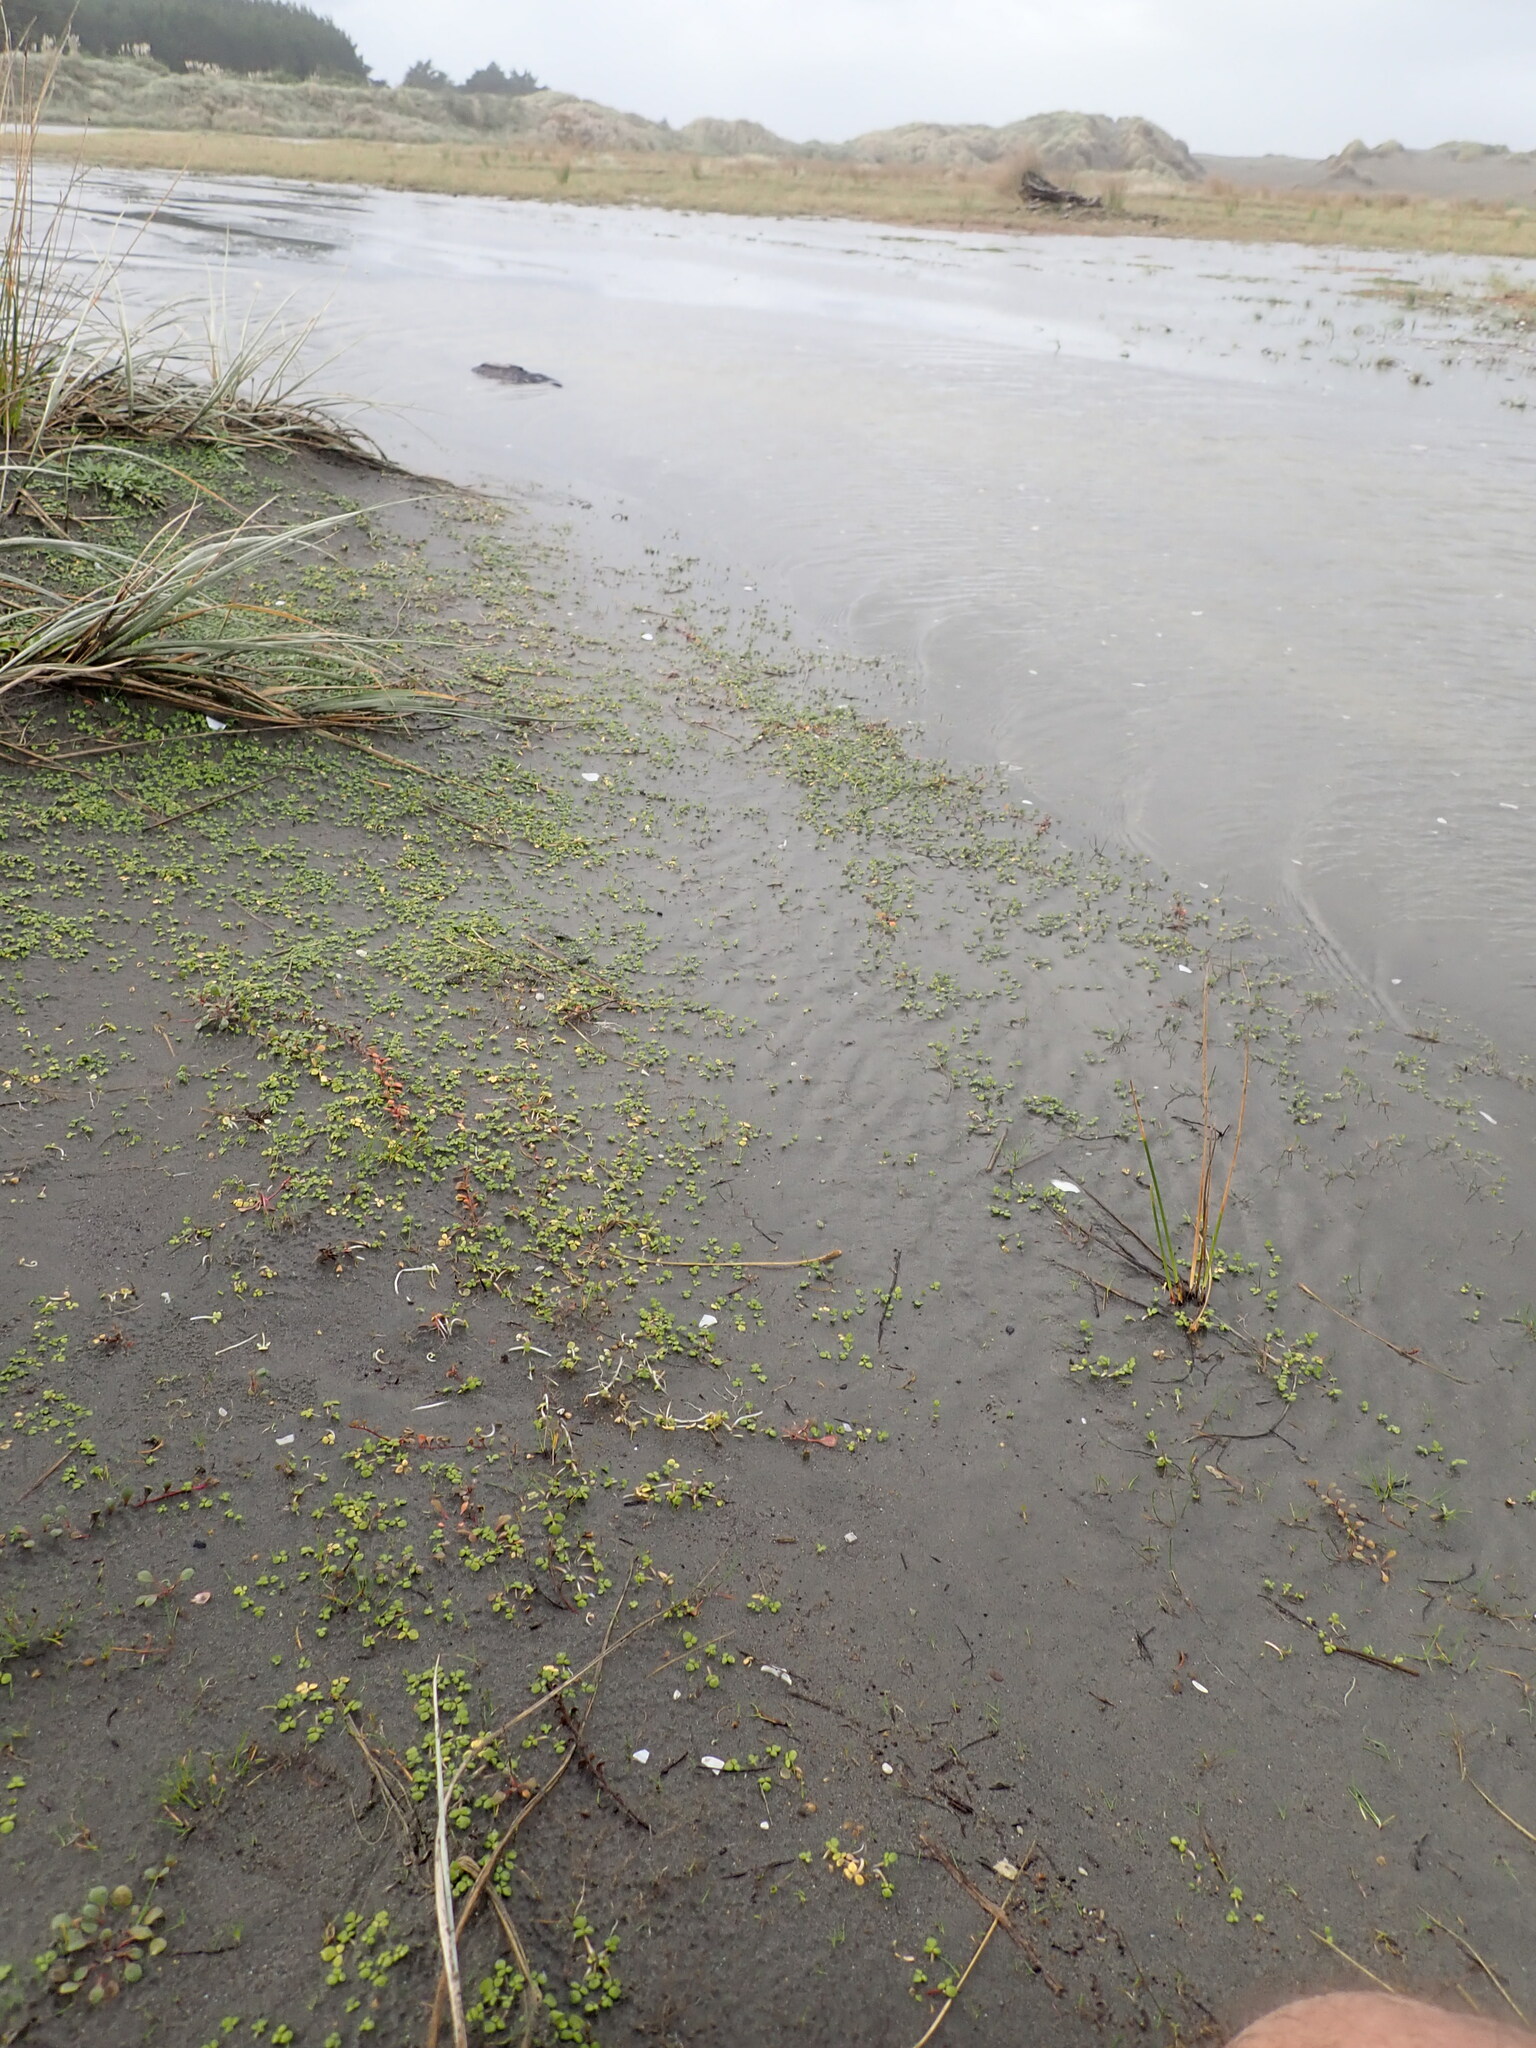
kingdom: Plantae
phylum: Tracheophyta
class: Magnoliopsida
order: Ranunculales
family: Ranunculaceae
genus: Ranunculus
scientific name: Ranunculus acaulis
